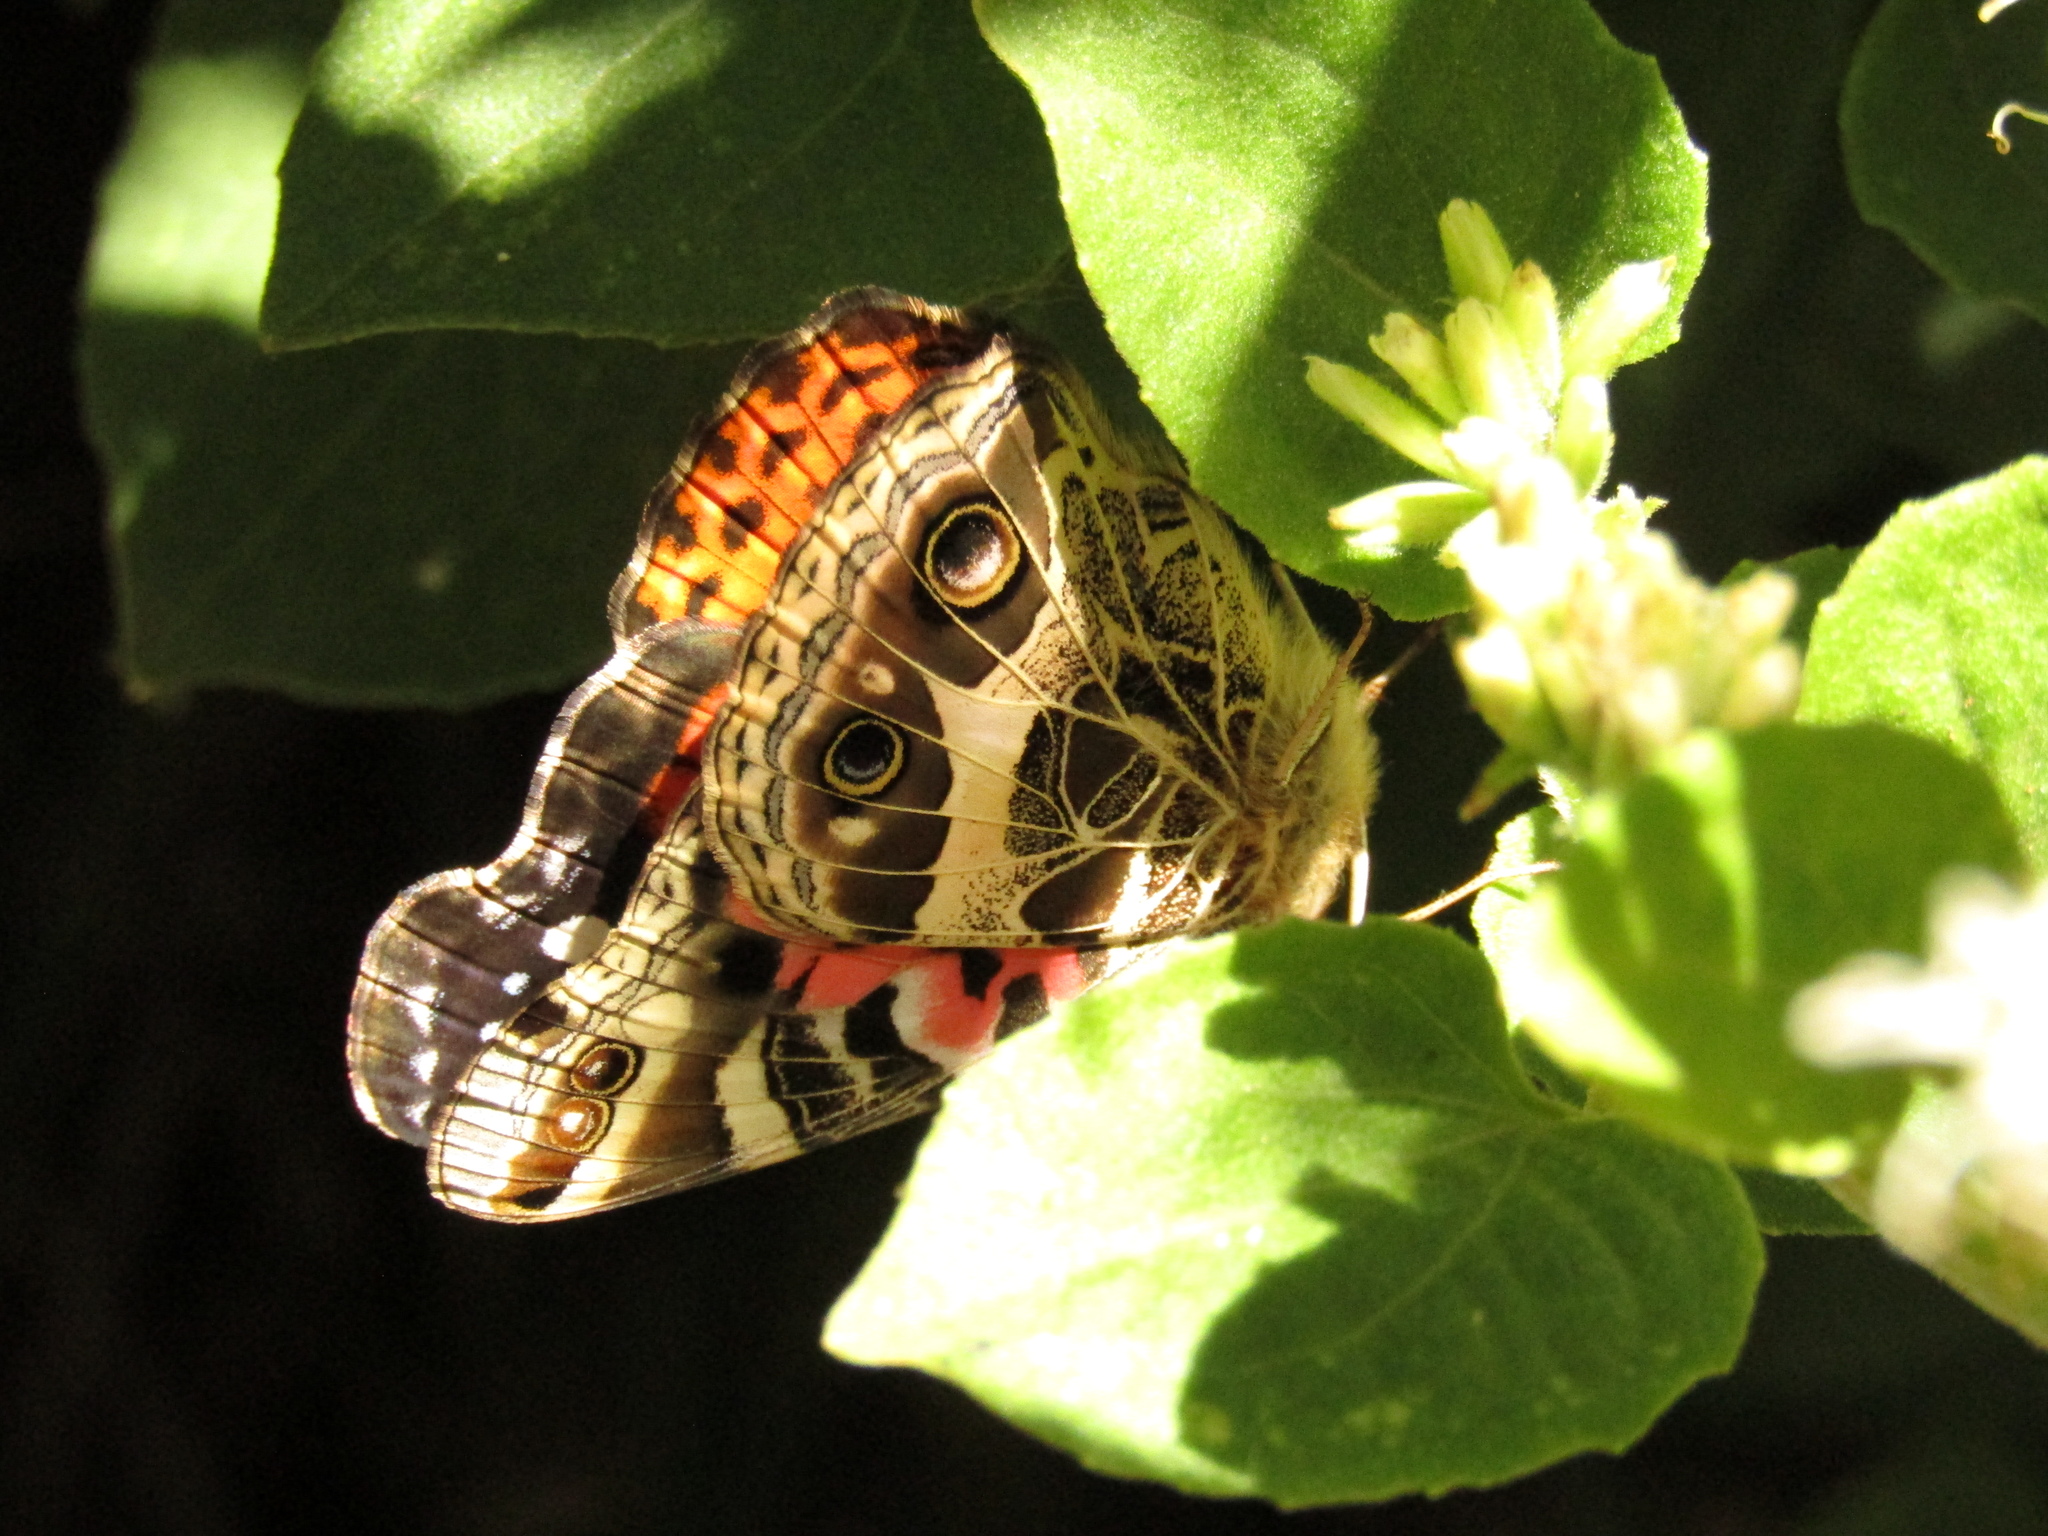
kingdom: Animalia
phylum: Arthropoda
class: Insecta
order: Lepidoptera
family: Nymphalidae
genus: Vanessa
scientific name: Vanessa braziliensis
